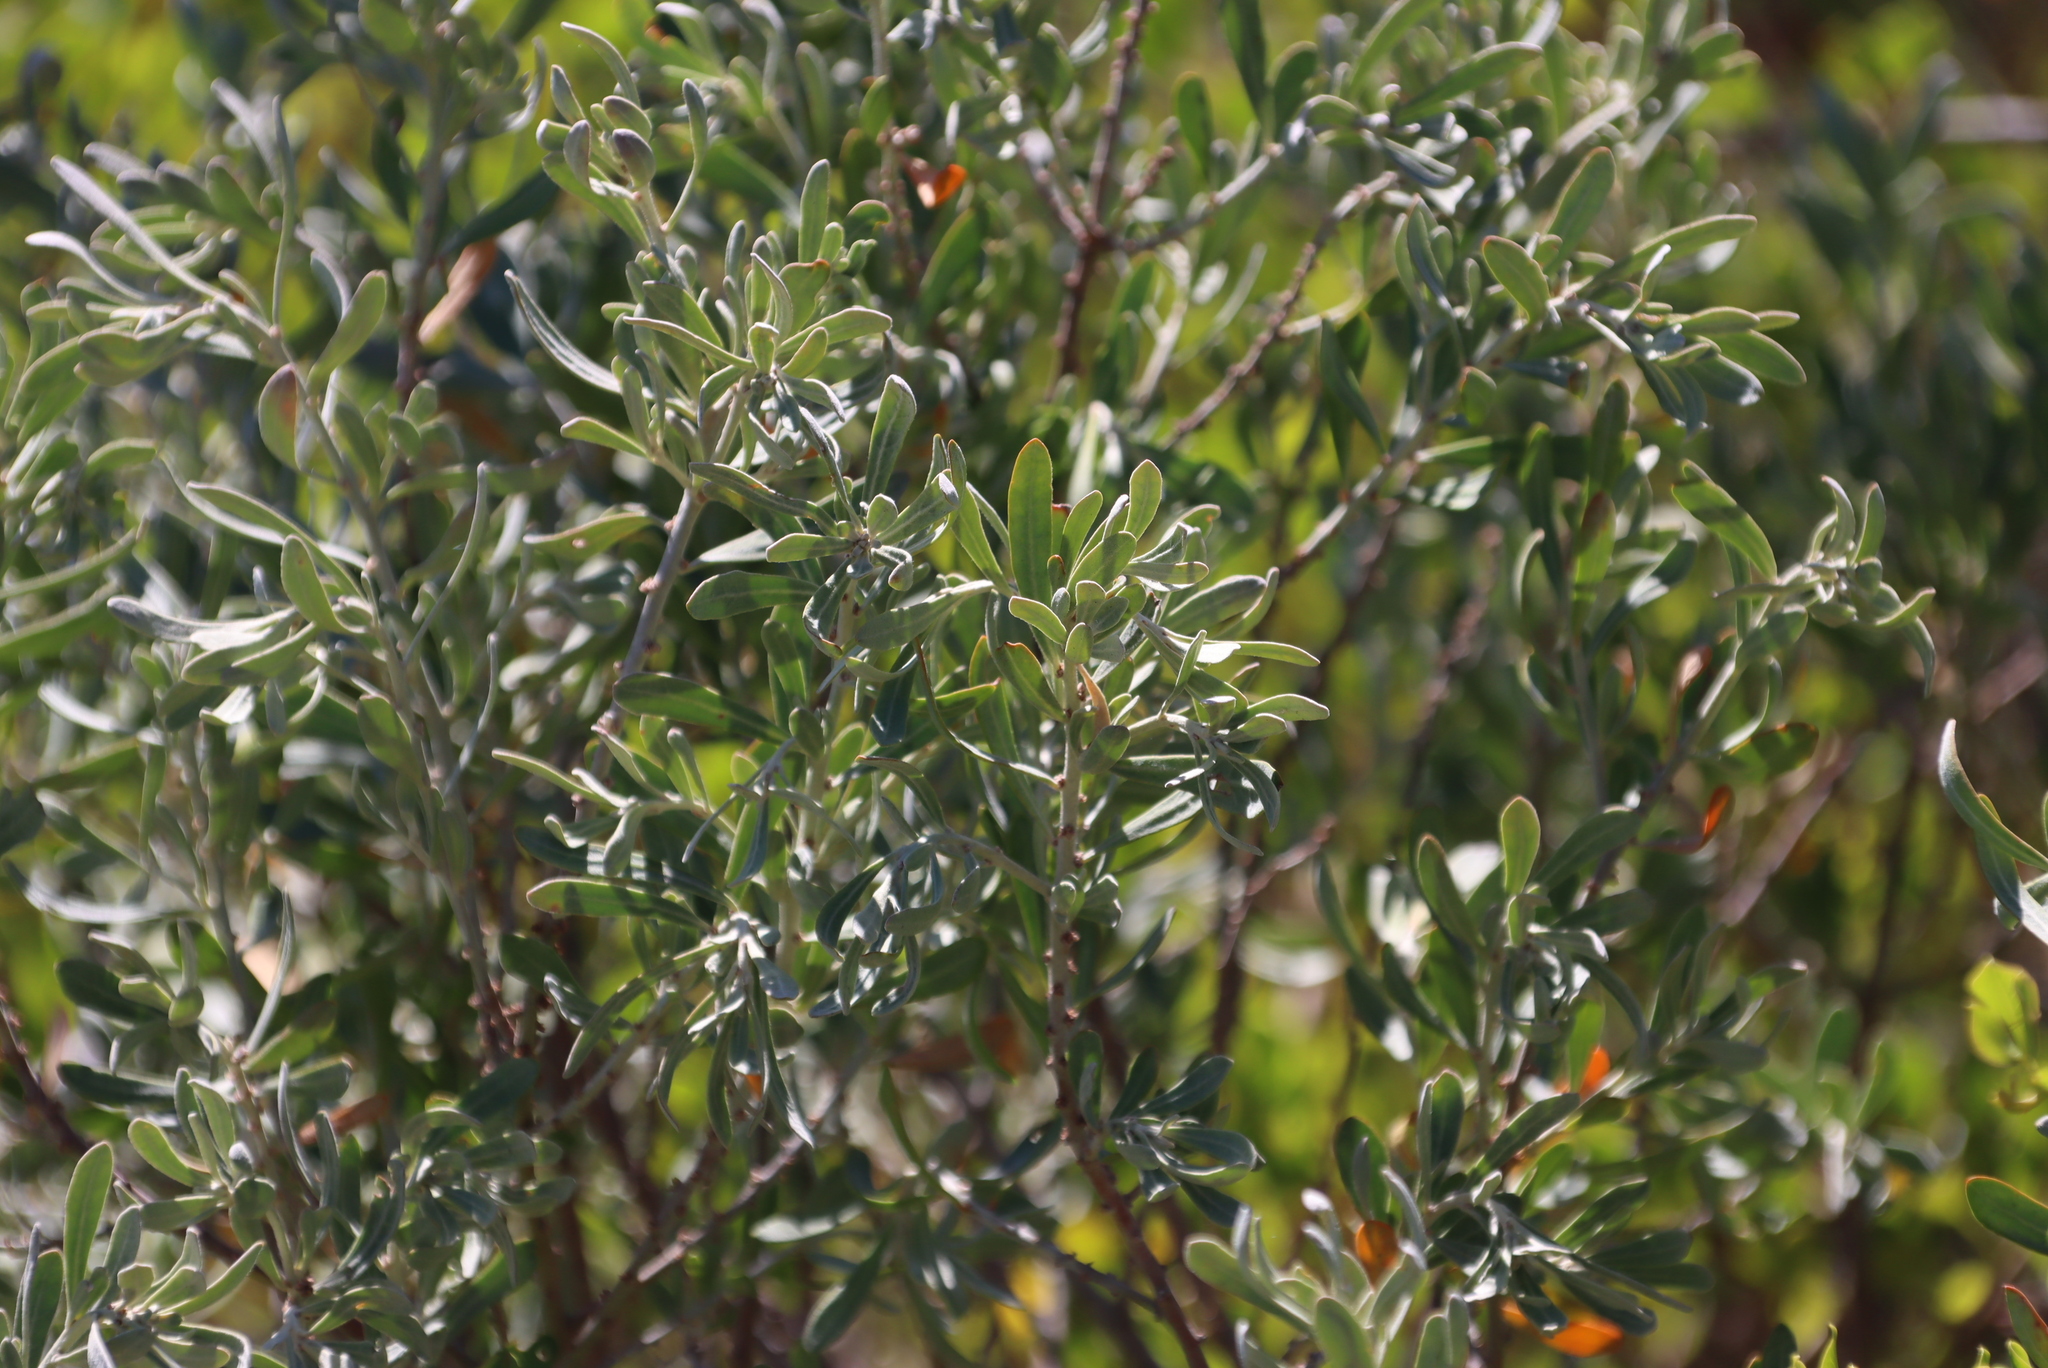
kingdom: Plantae
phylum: Tracheophyta
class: Magnoliopsida
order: Malpighiales
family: Peraceae
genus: Clutia
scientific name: Clutia daphnoides
